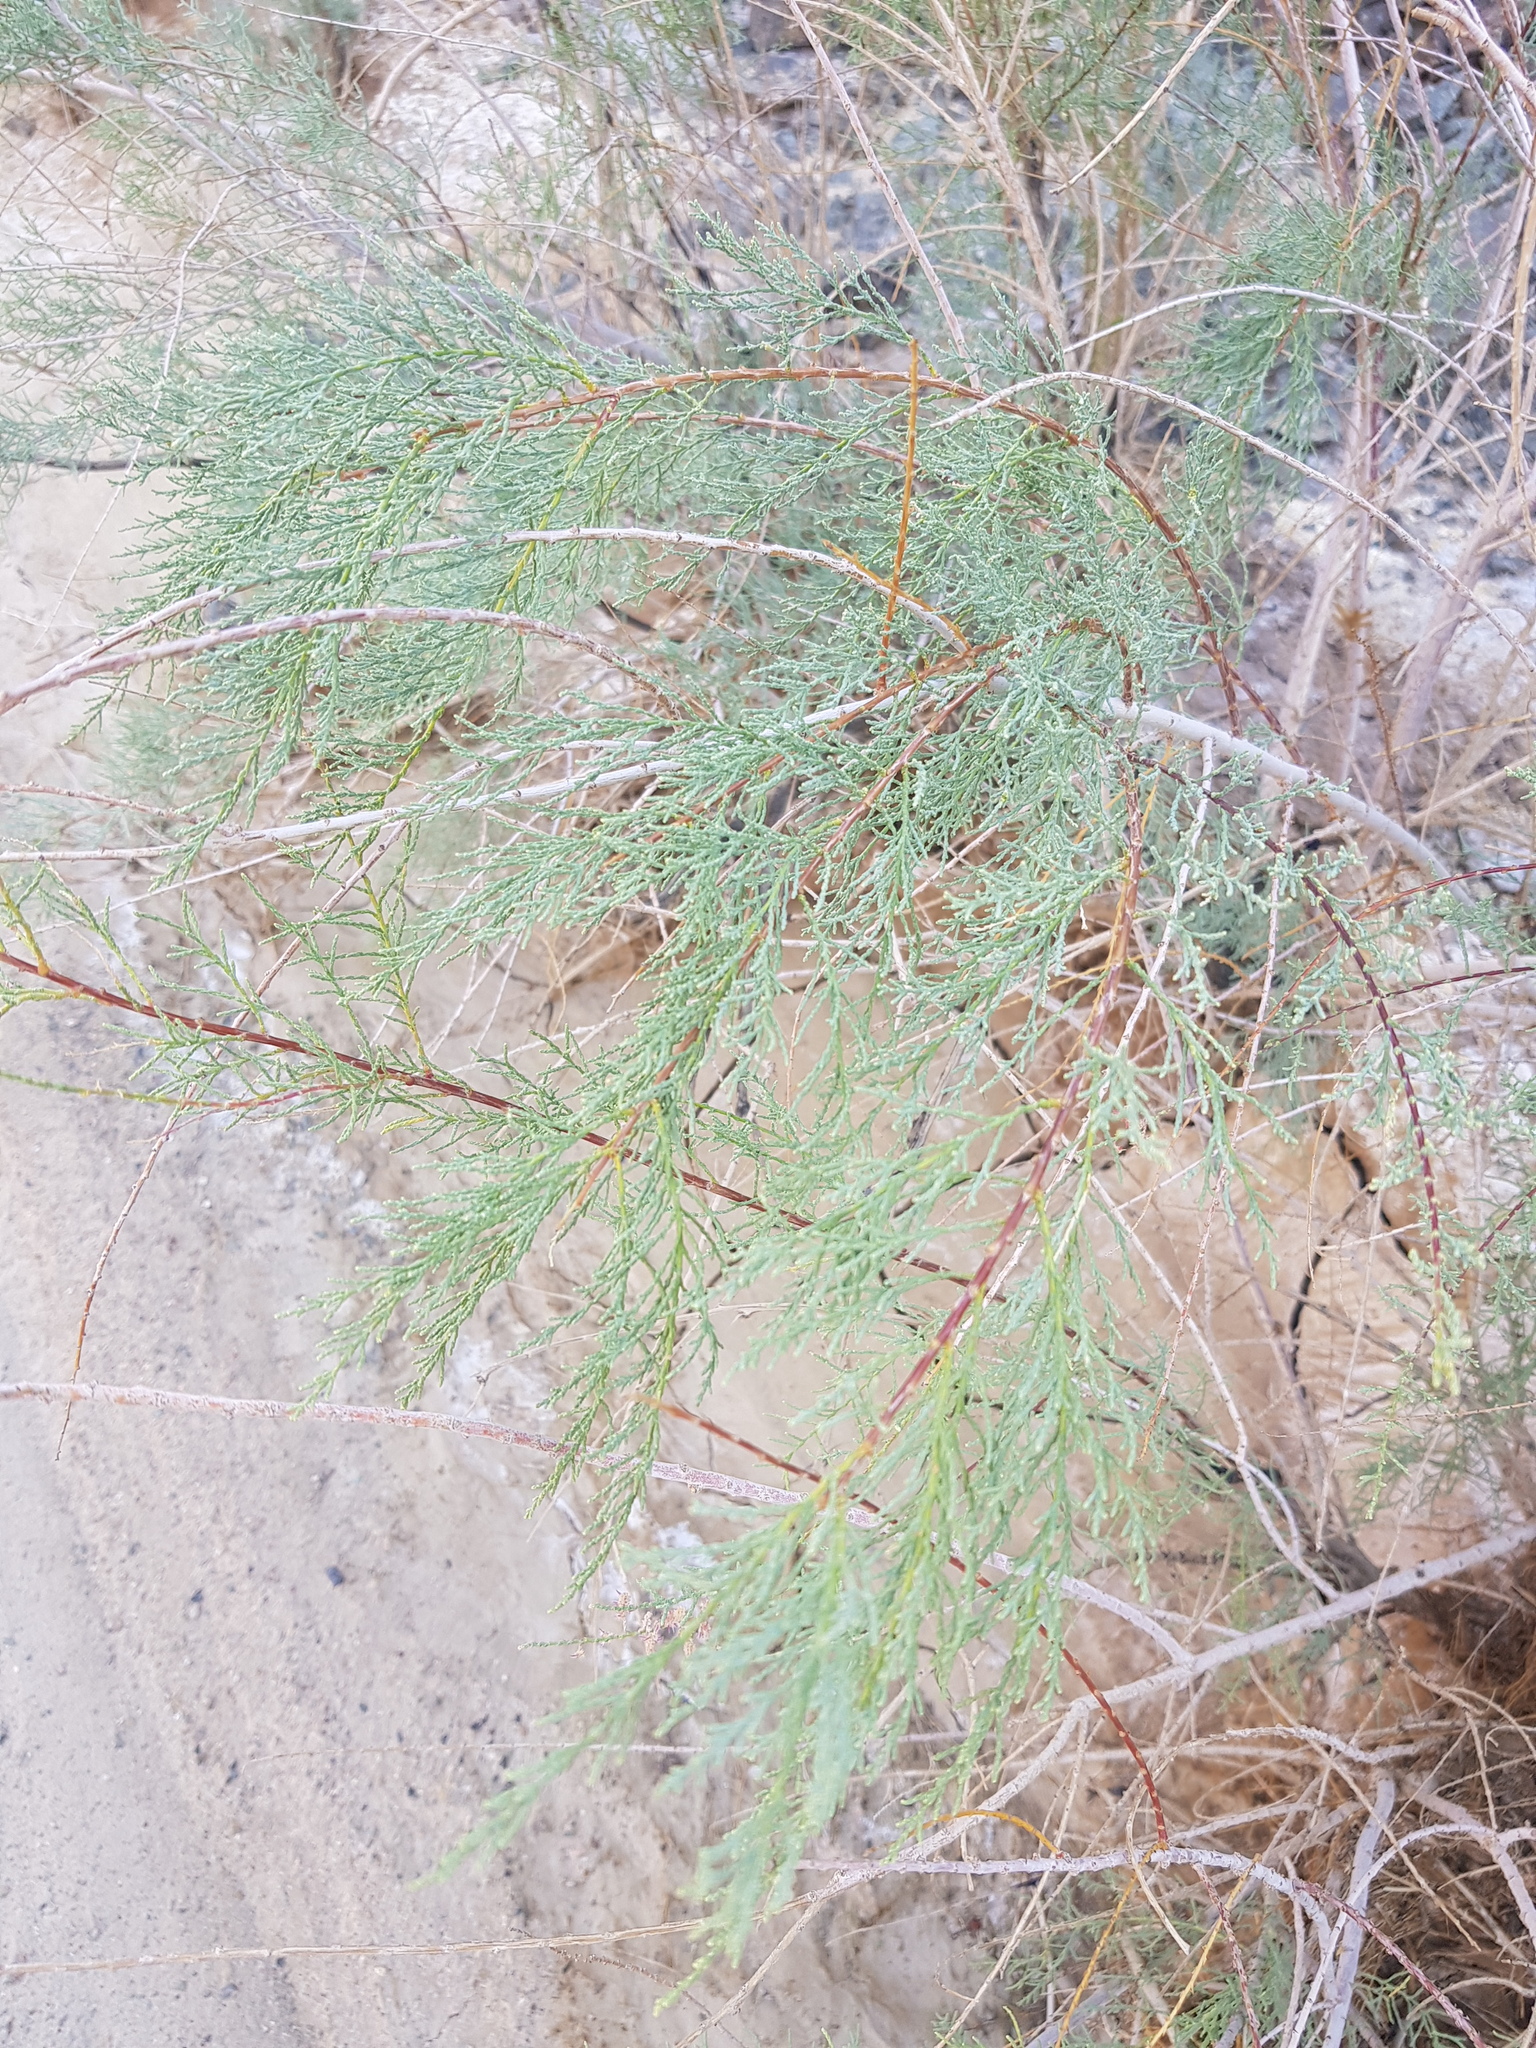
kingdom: Plantae
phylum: Tracheophyta
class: Magnoliopsida
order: Caryophyllales
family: Tamaricaceae
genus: Tamarix
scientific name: Tamarix gracilis
